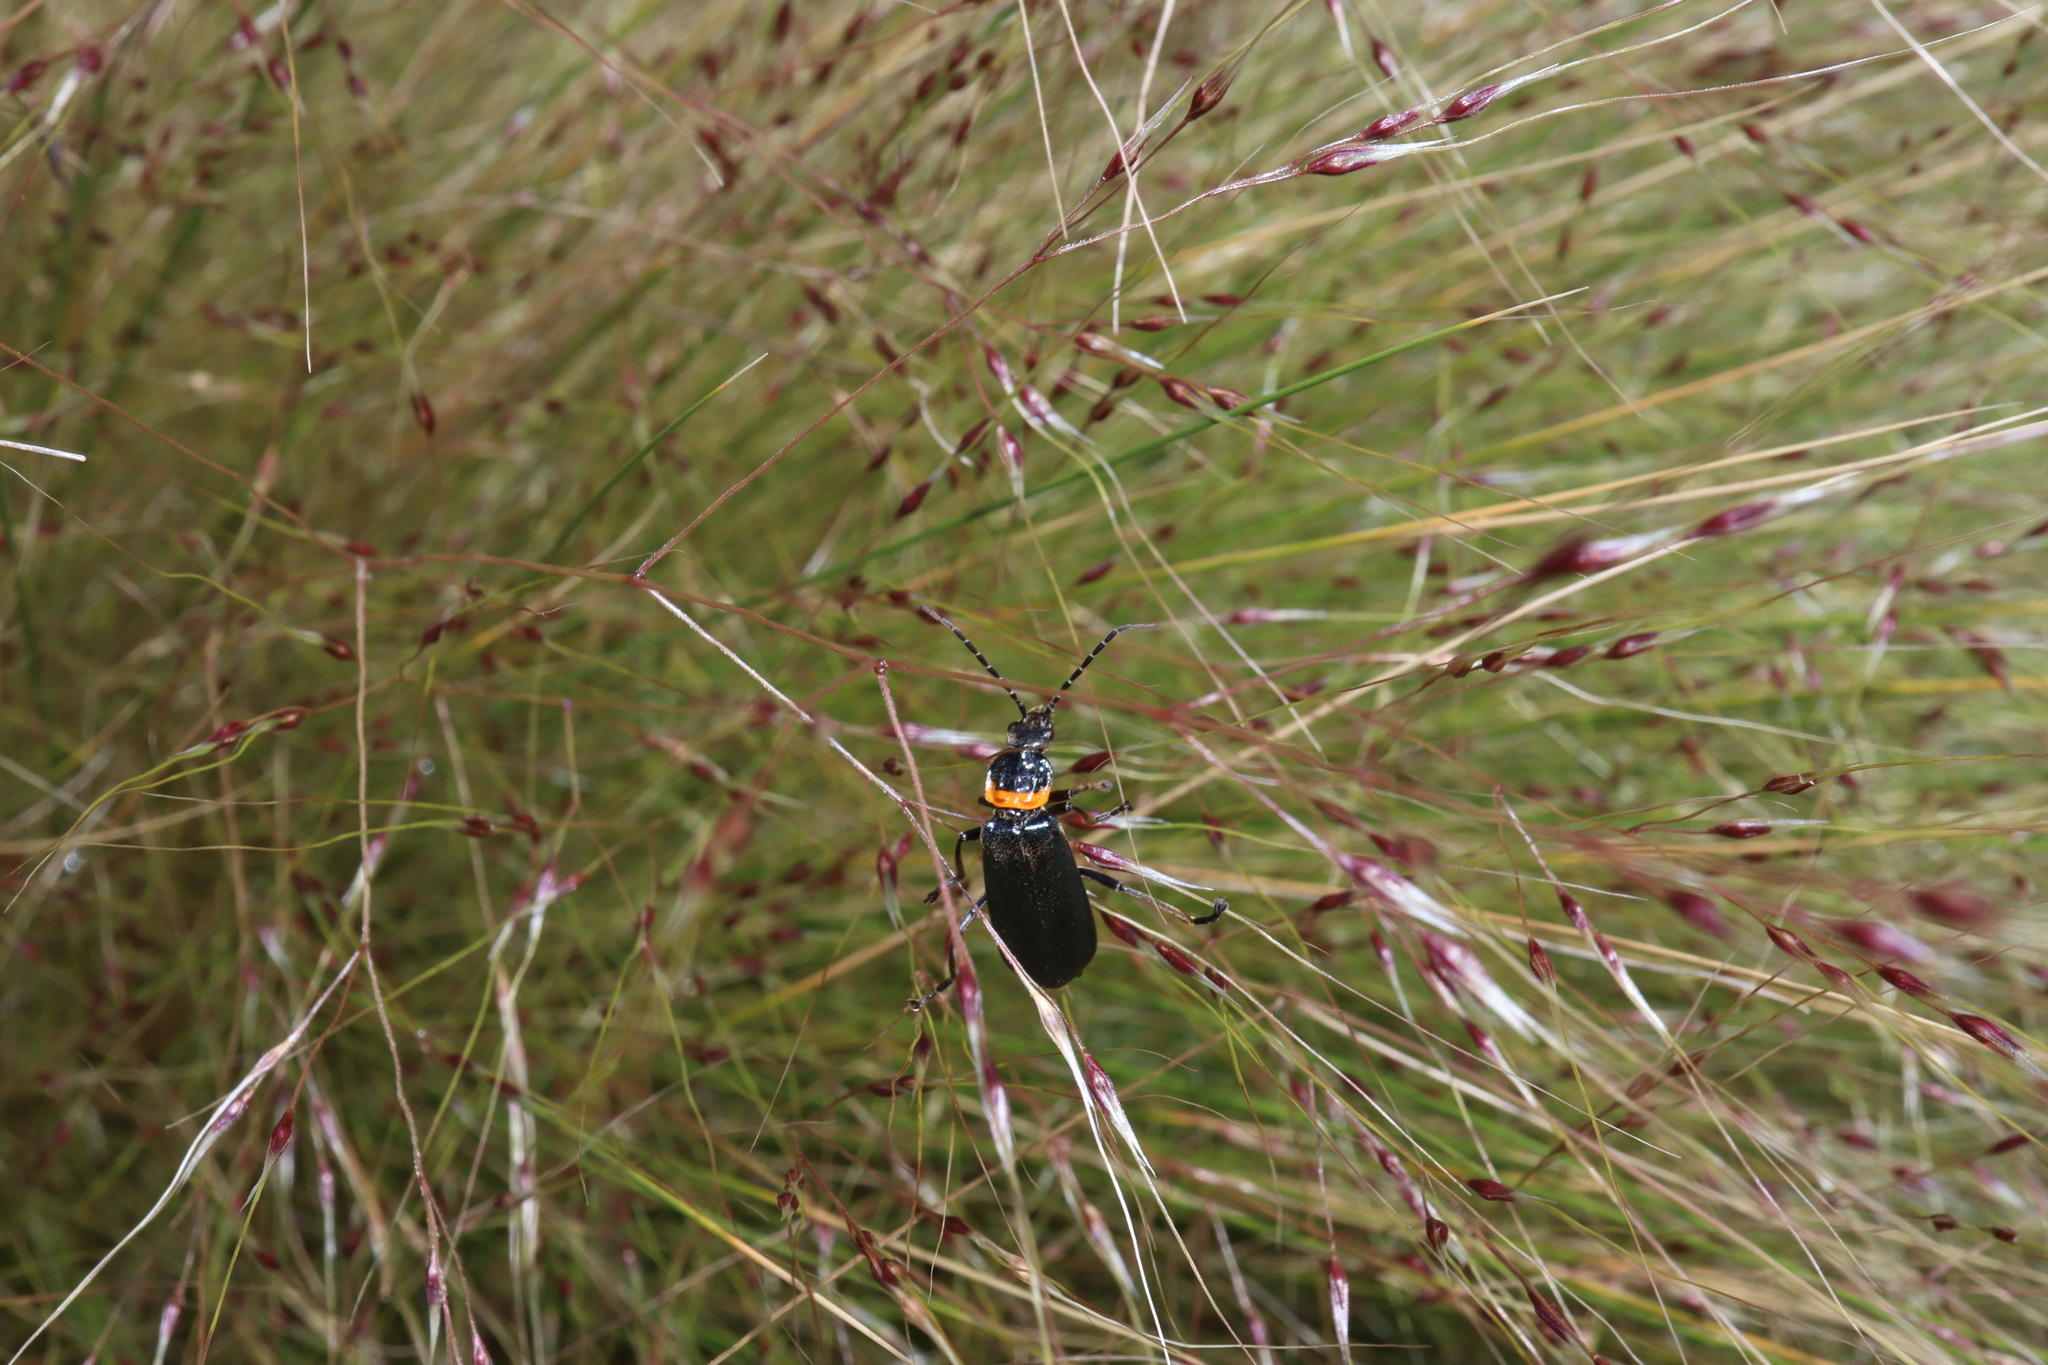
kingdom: Animalia
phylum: Arthropoda
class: Insecta
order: Coleoptera
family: Cantharidae
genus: Chauliognathus
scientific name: Chauliognathus
